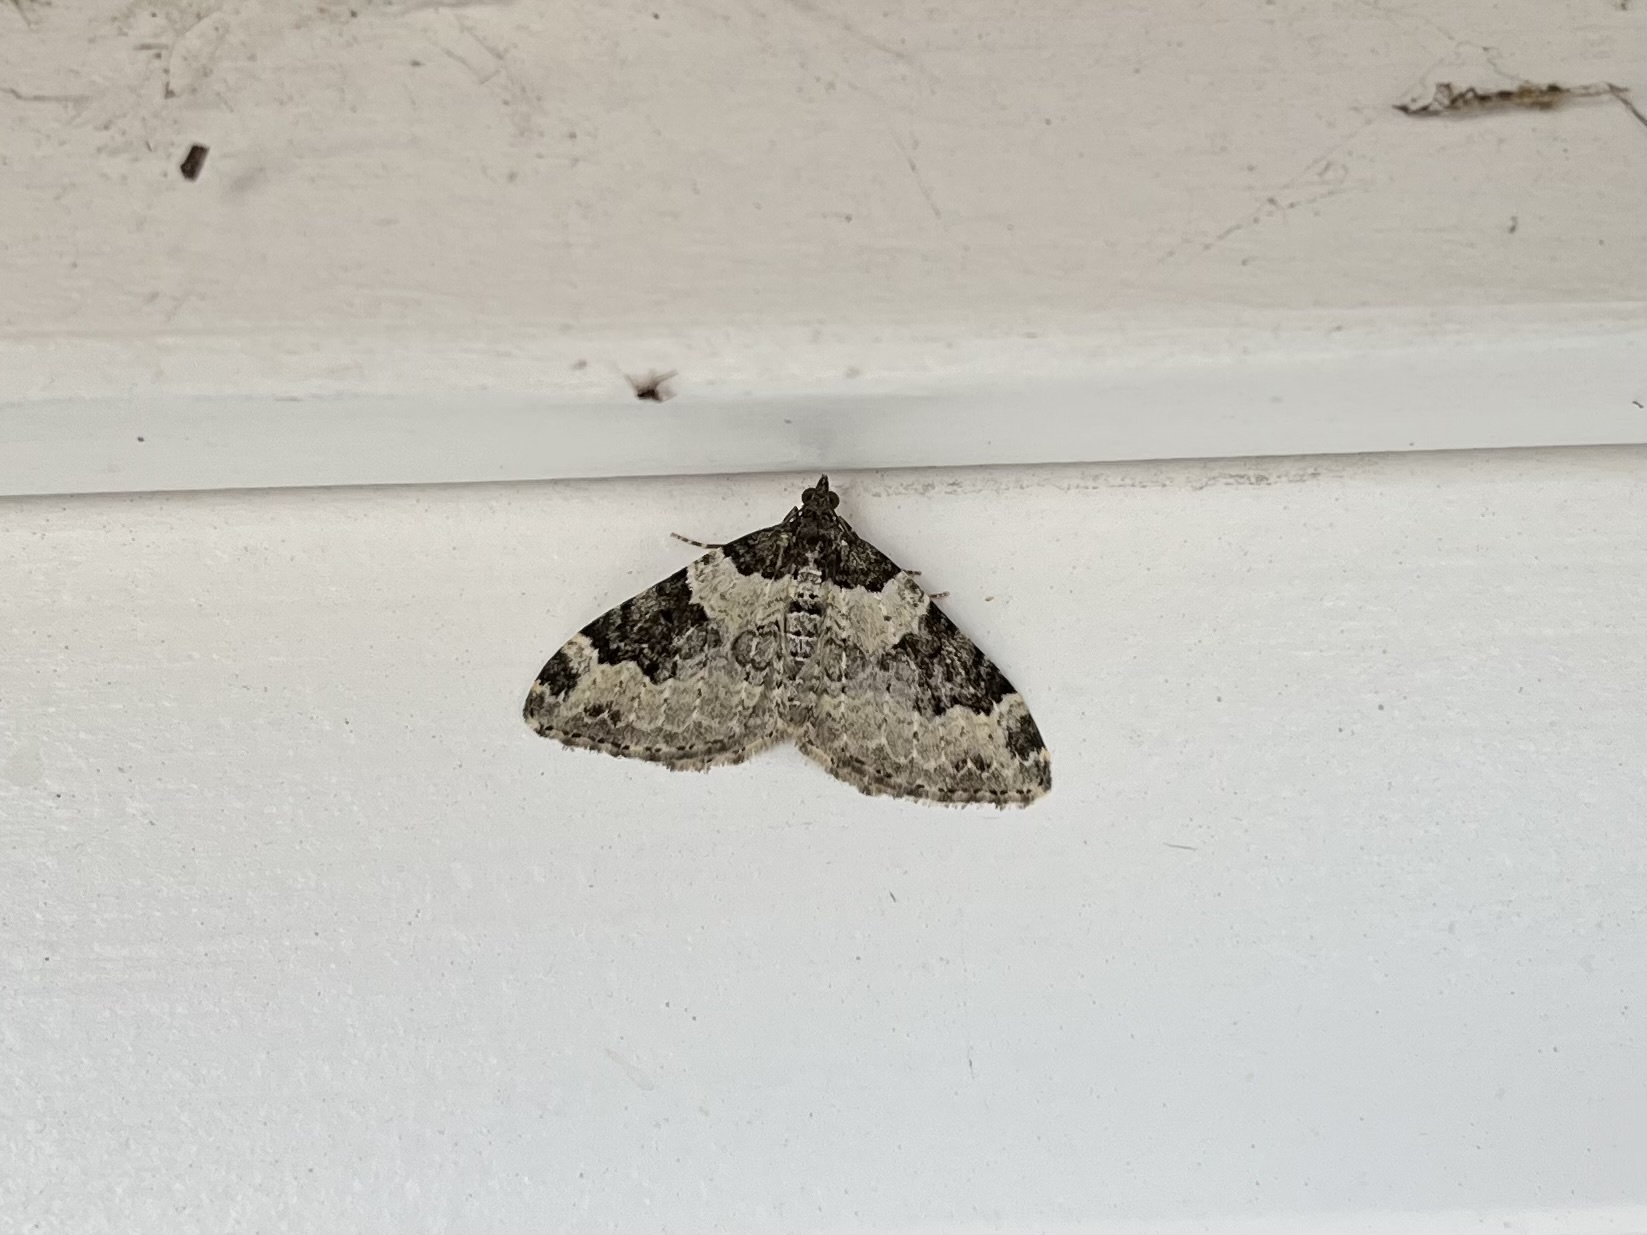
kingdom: Animalia
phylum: Arthropoda
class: Insecta
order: Lepidoptera
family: Geometridae
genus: Xanthorhoe
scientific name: Xanthorhoe fluctuata
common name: Garden carpet
